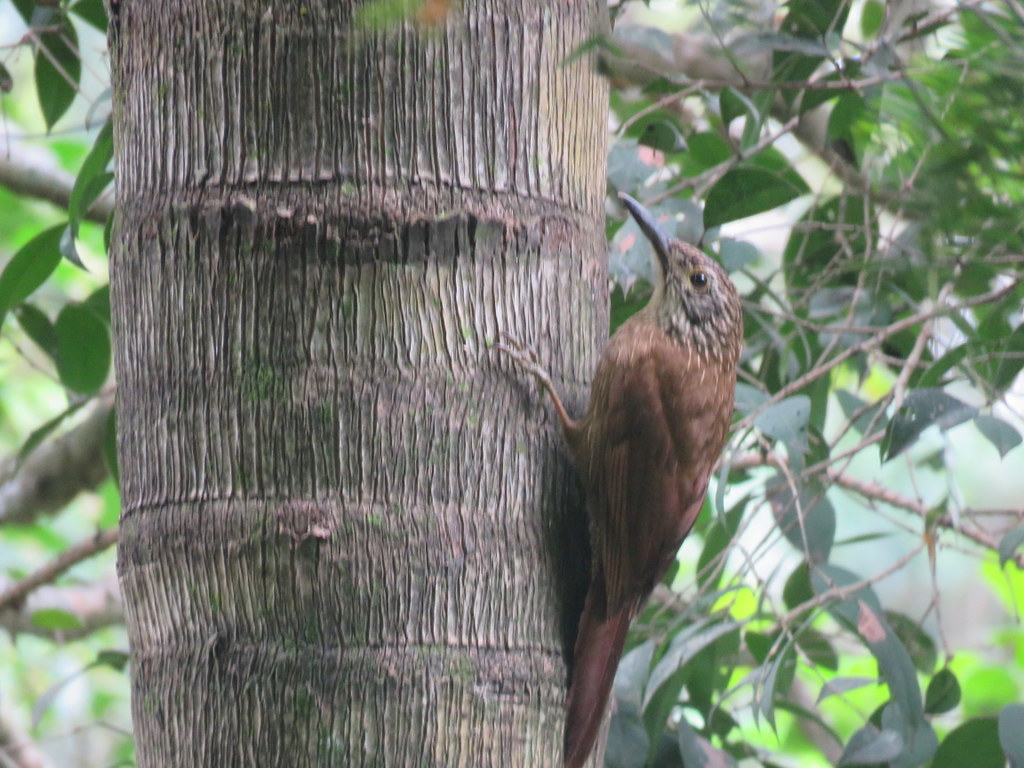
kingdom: Animalia
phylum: Chordata
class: Aves
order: Passeriformes
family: Furnariidae
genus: Dendrocolaptes
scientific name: Dendrocolaptes platyrostris
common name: Planalto woodcreeper
